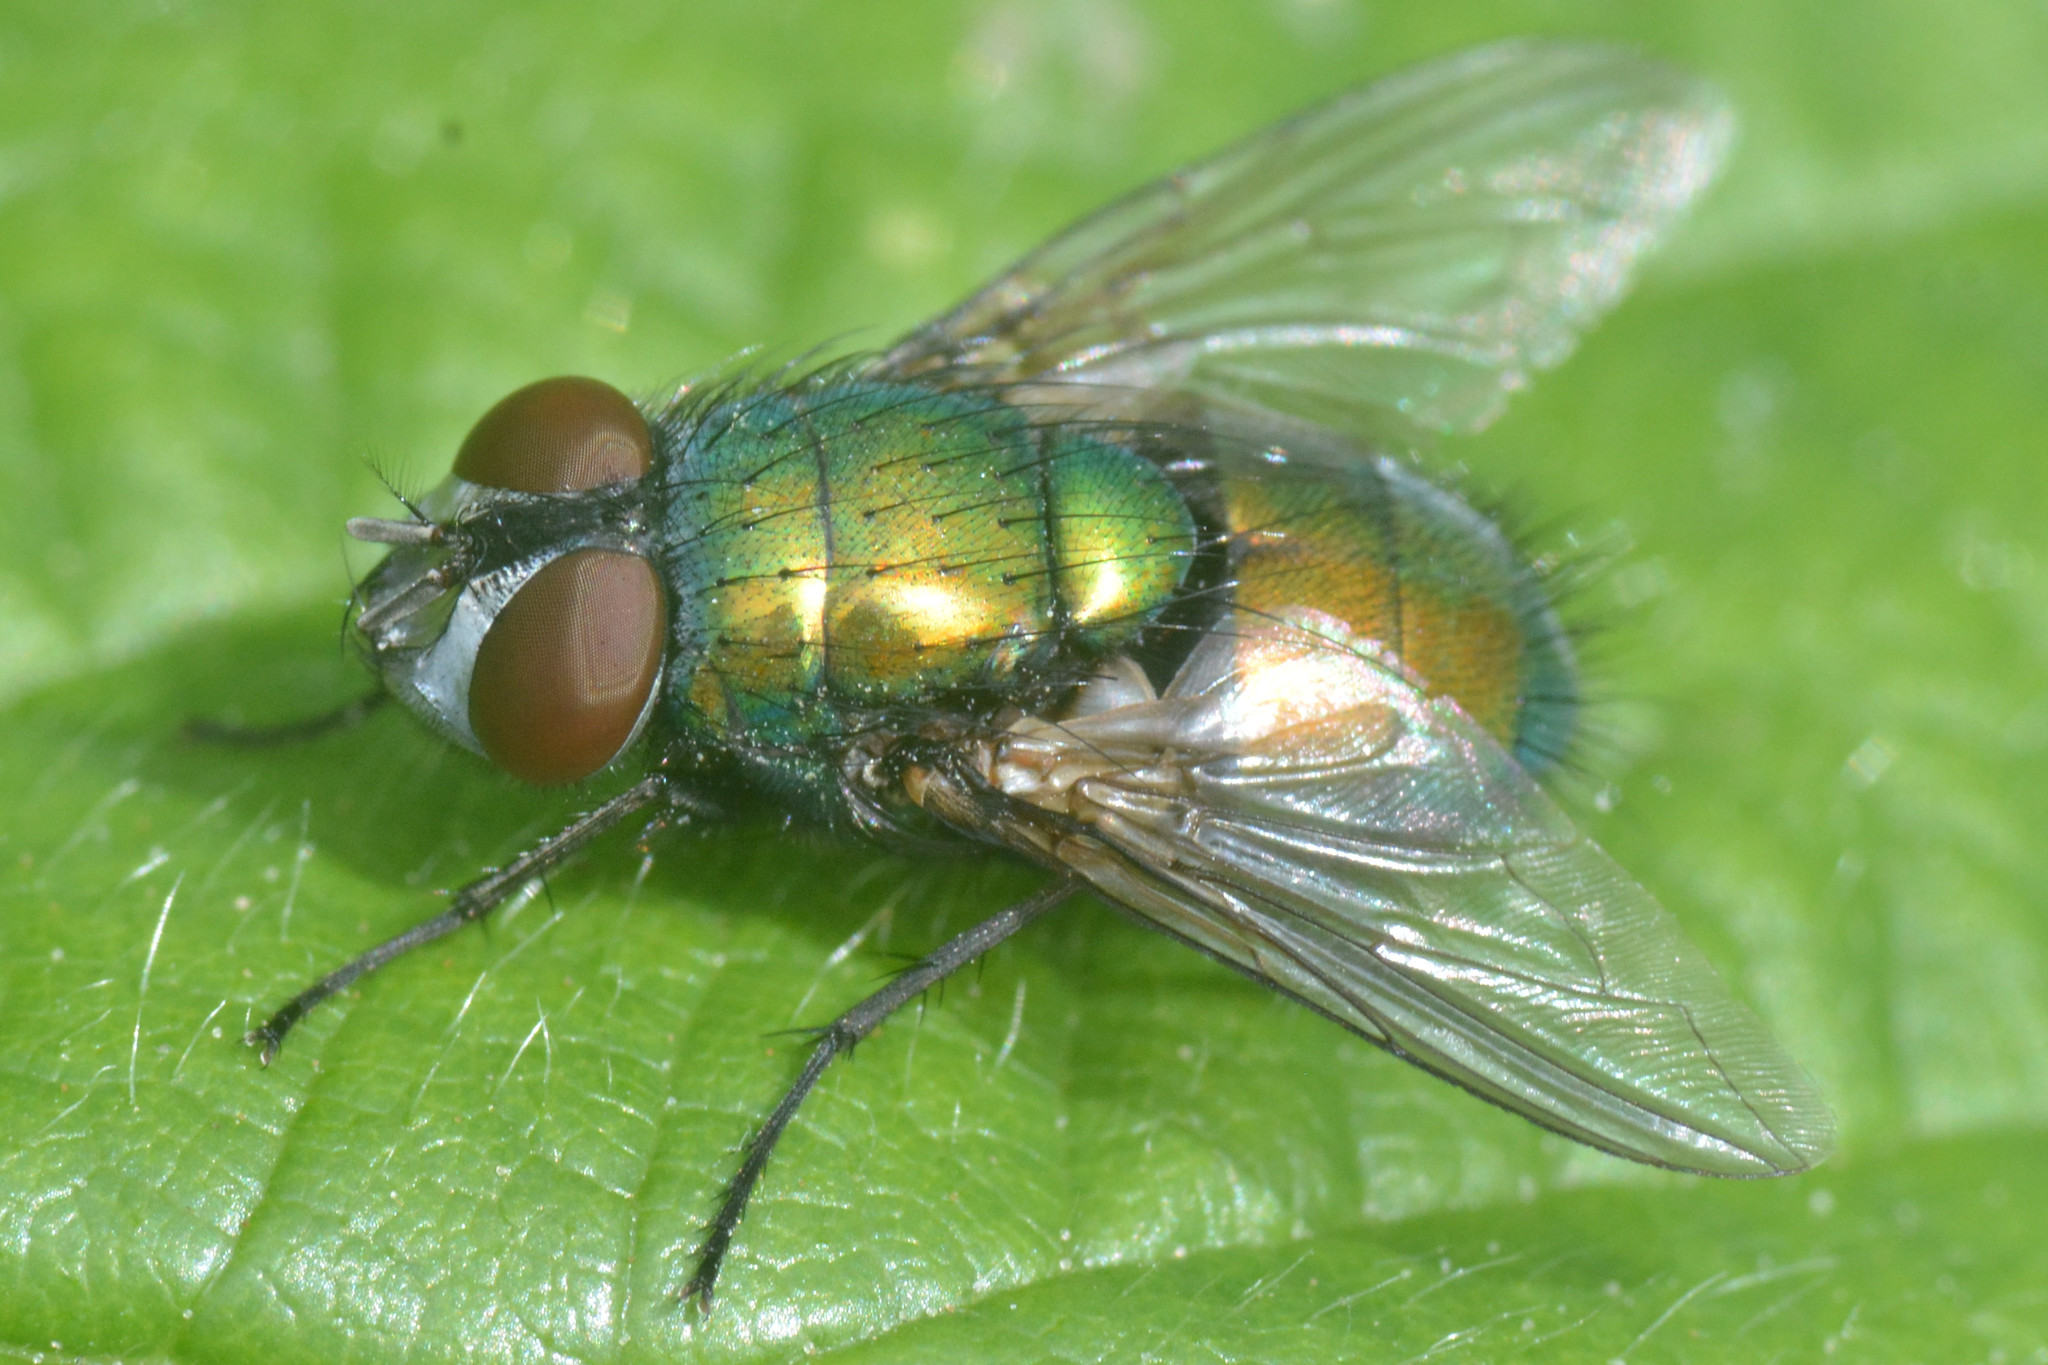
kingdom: Animalia
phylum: Arthropoda
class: Insecta
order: Diptera
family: Calliphoridae
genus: Lucilia
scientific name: Lucilia sericata
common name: Blow fly
